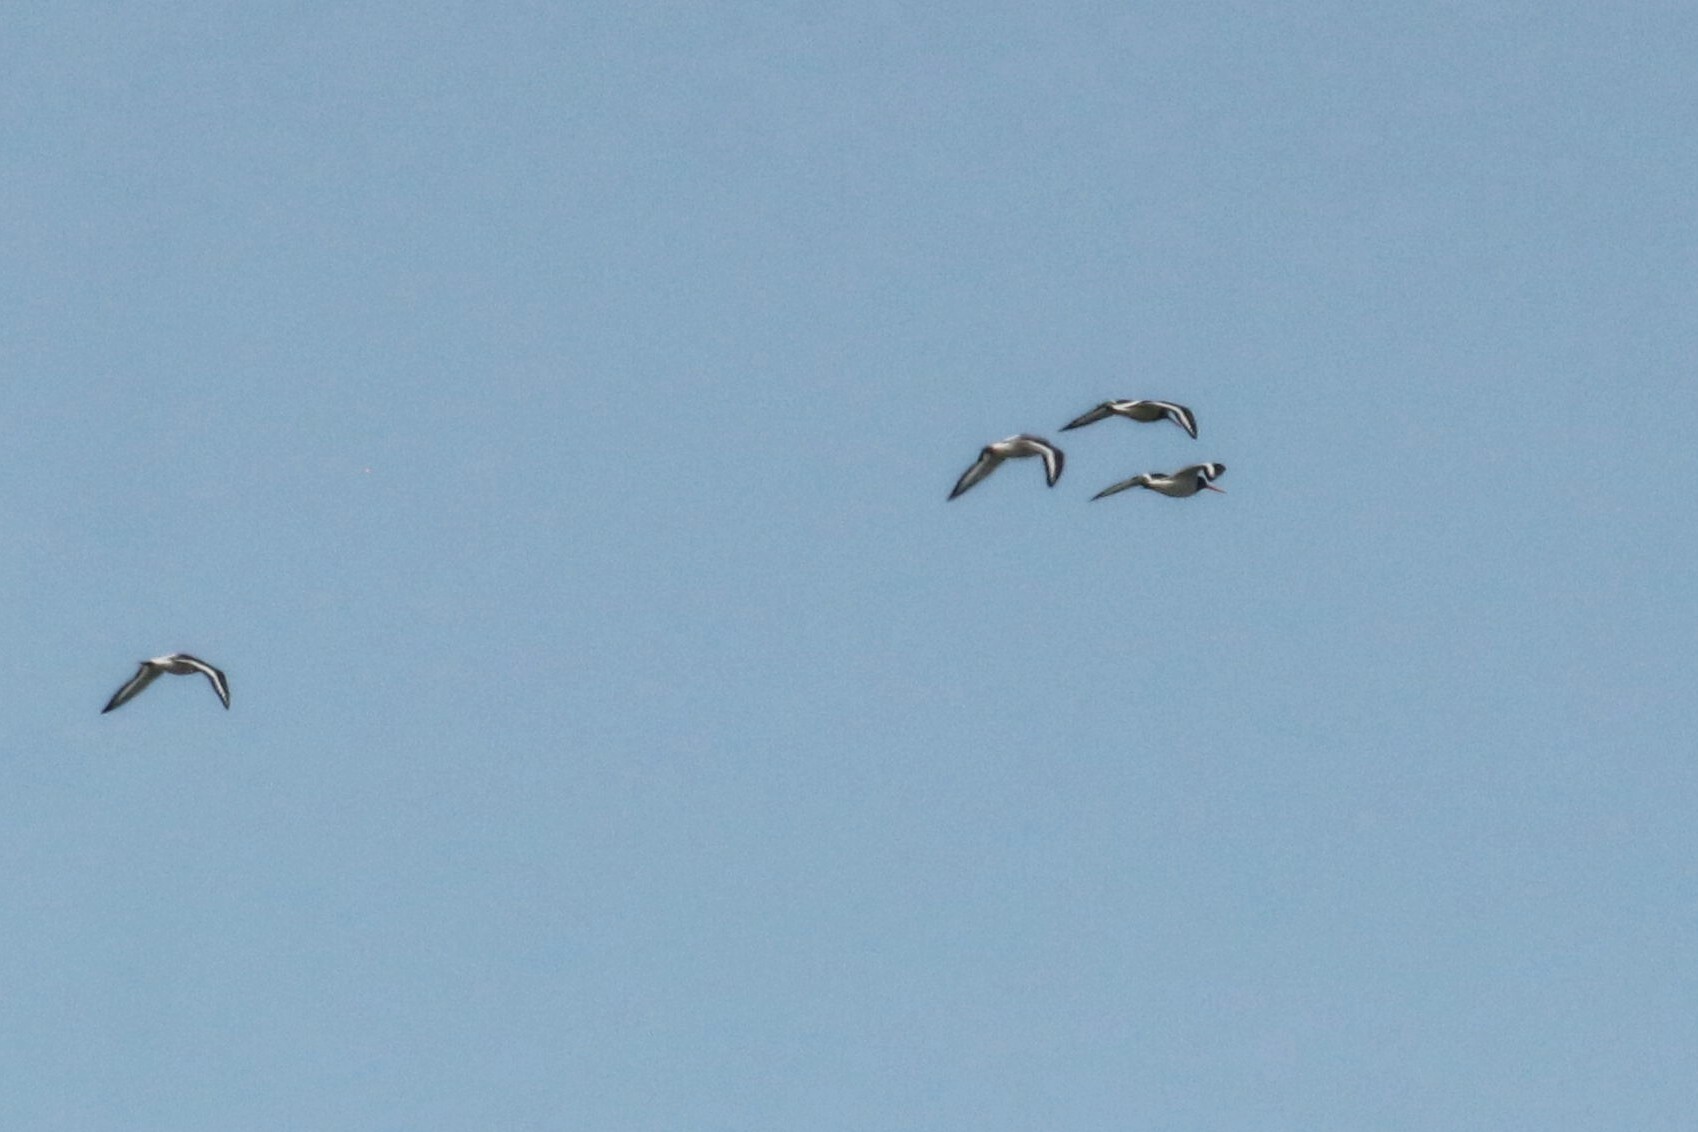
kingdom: Animalia
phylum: Chordata
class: Aves
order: Charadriiformes
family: Haematopodidae
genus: Haematopus
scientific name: Haematopus ostralegus
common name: Eurasian oystercatcher
